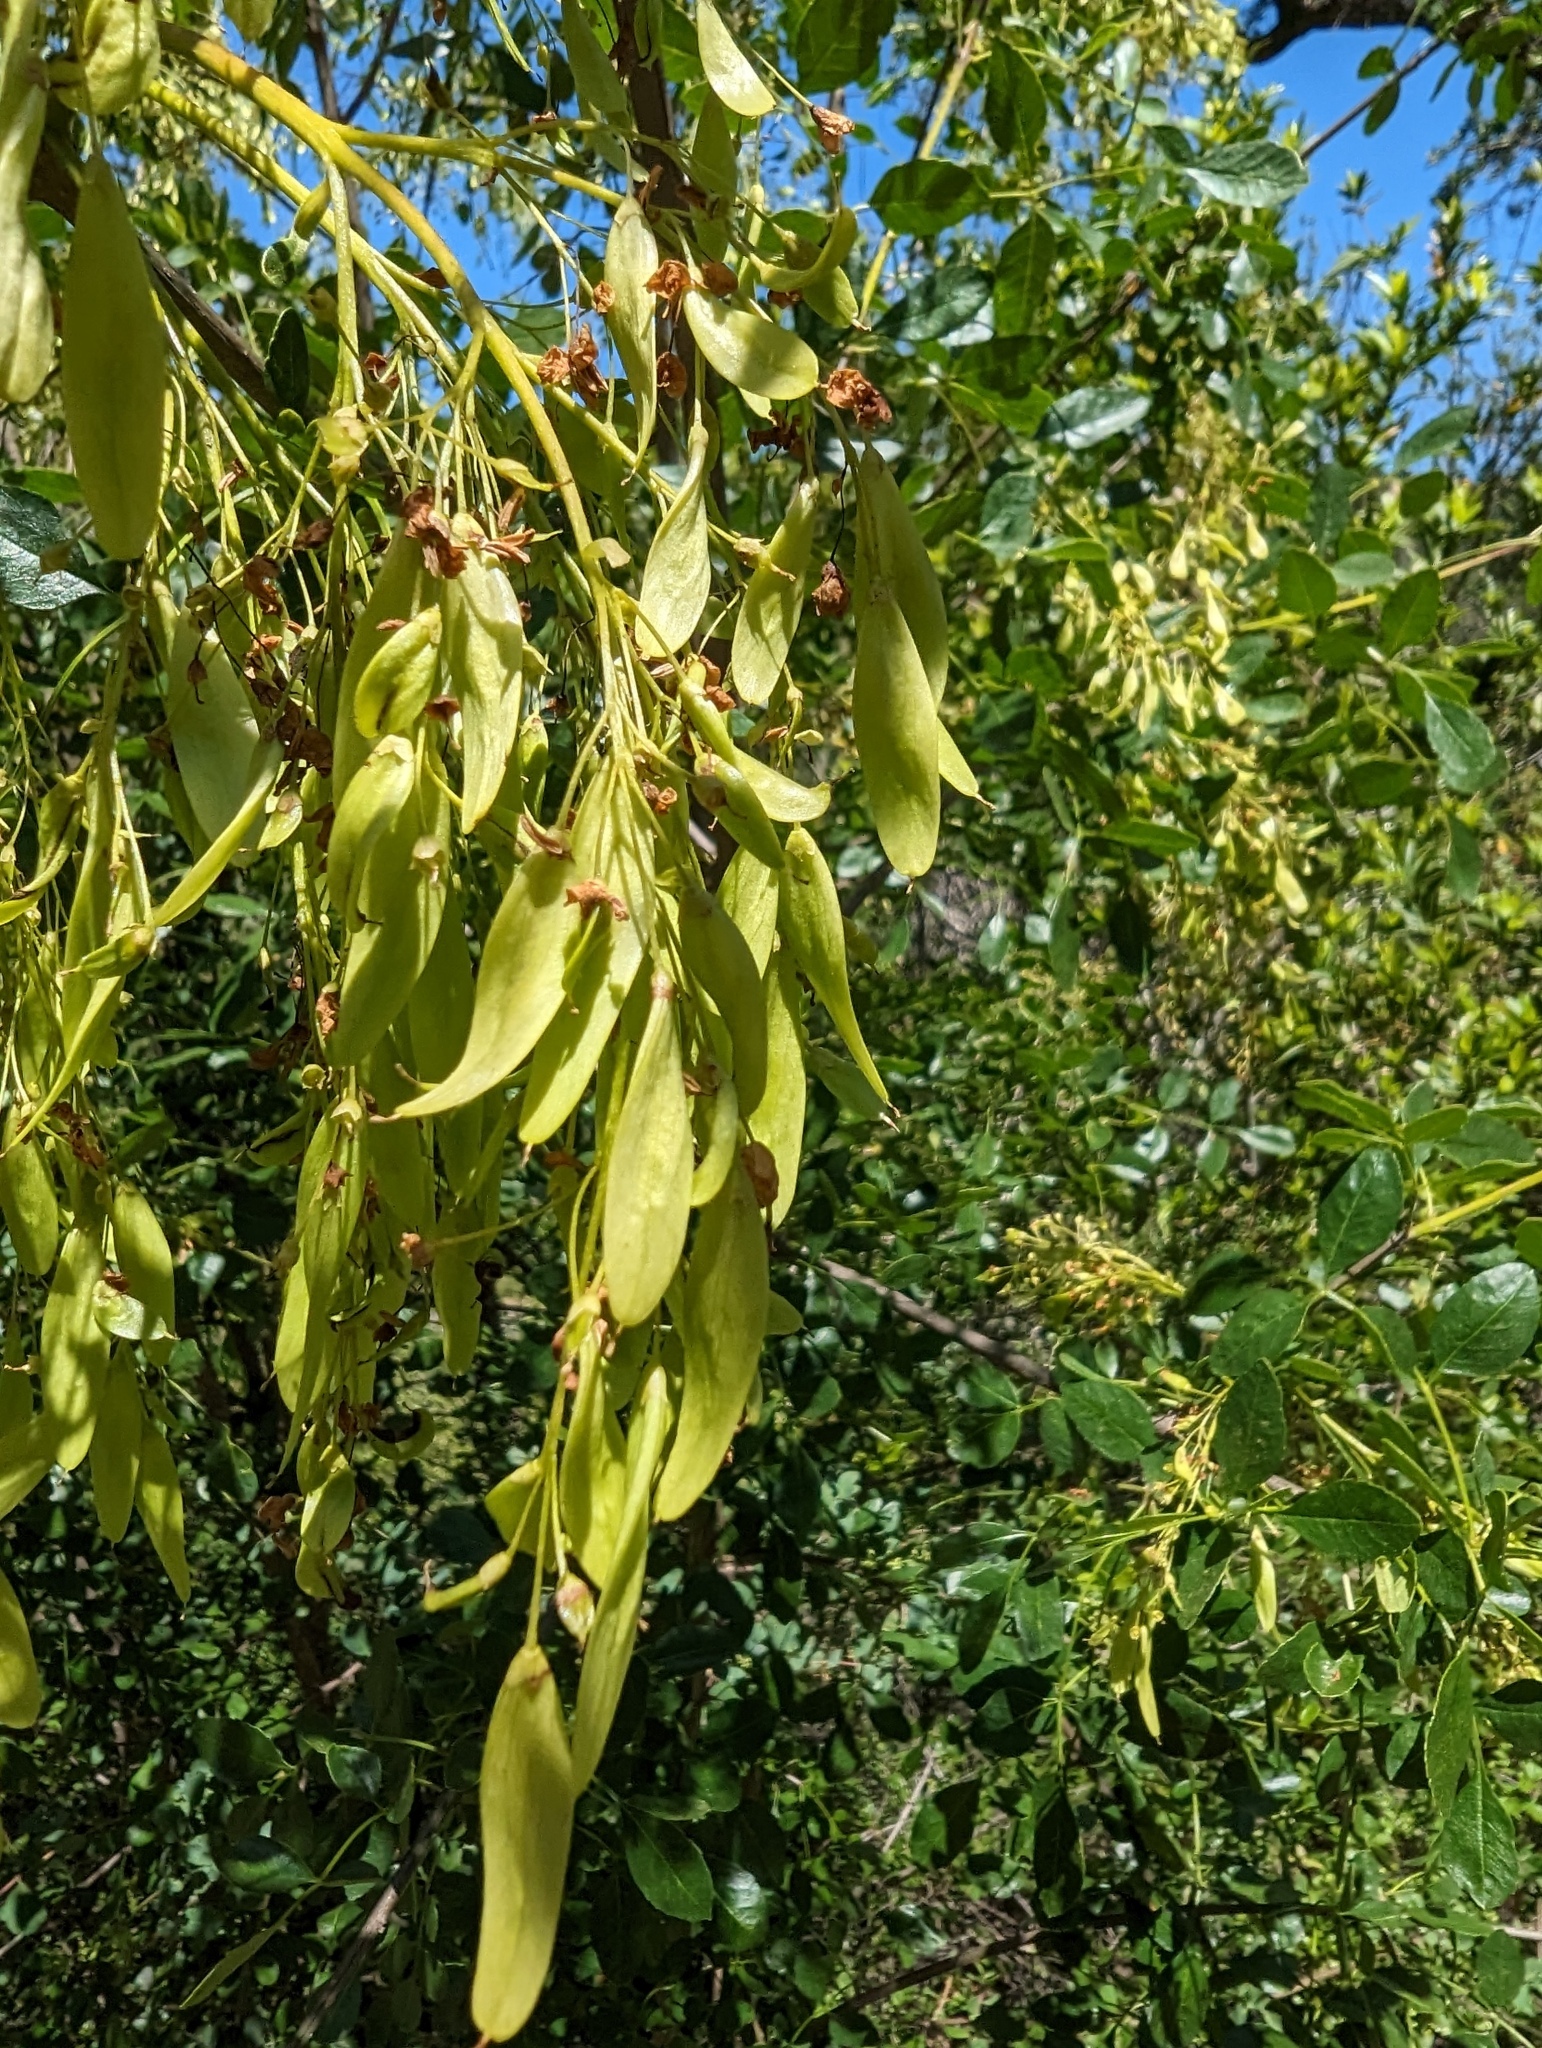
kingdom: Plantae
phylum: Tracheophyta
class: Magnoliopsida
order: Lamiales
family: Oleaceae
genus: Fraxinus
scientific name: Fraxinus dipetala
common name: California ash
